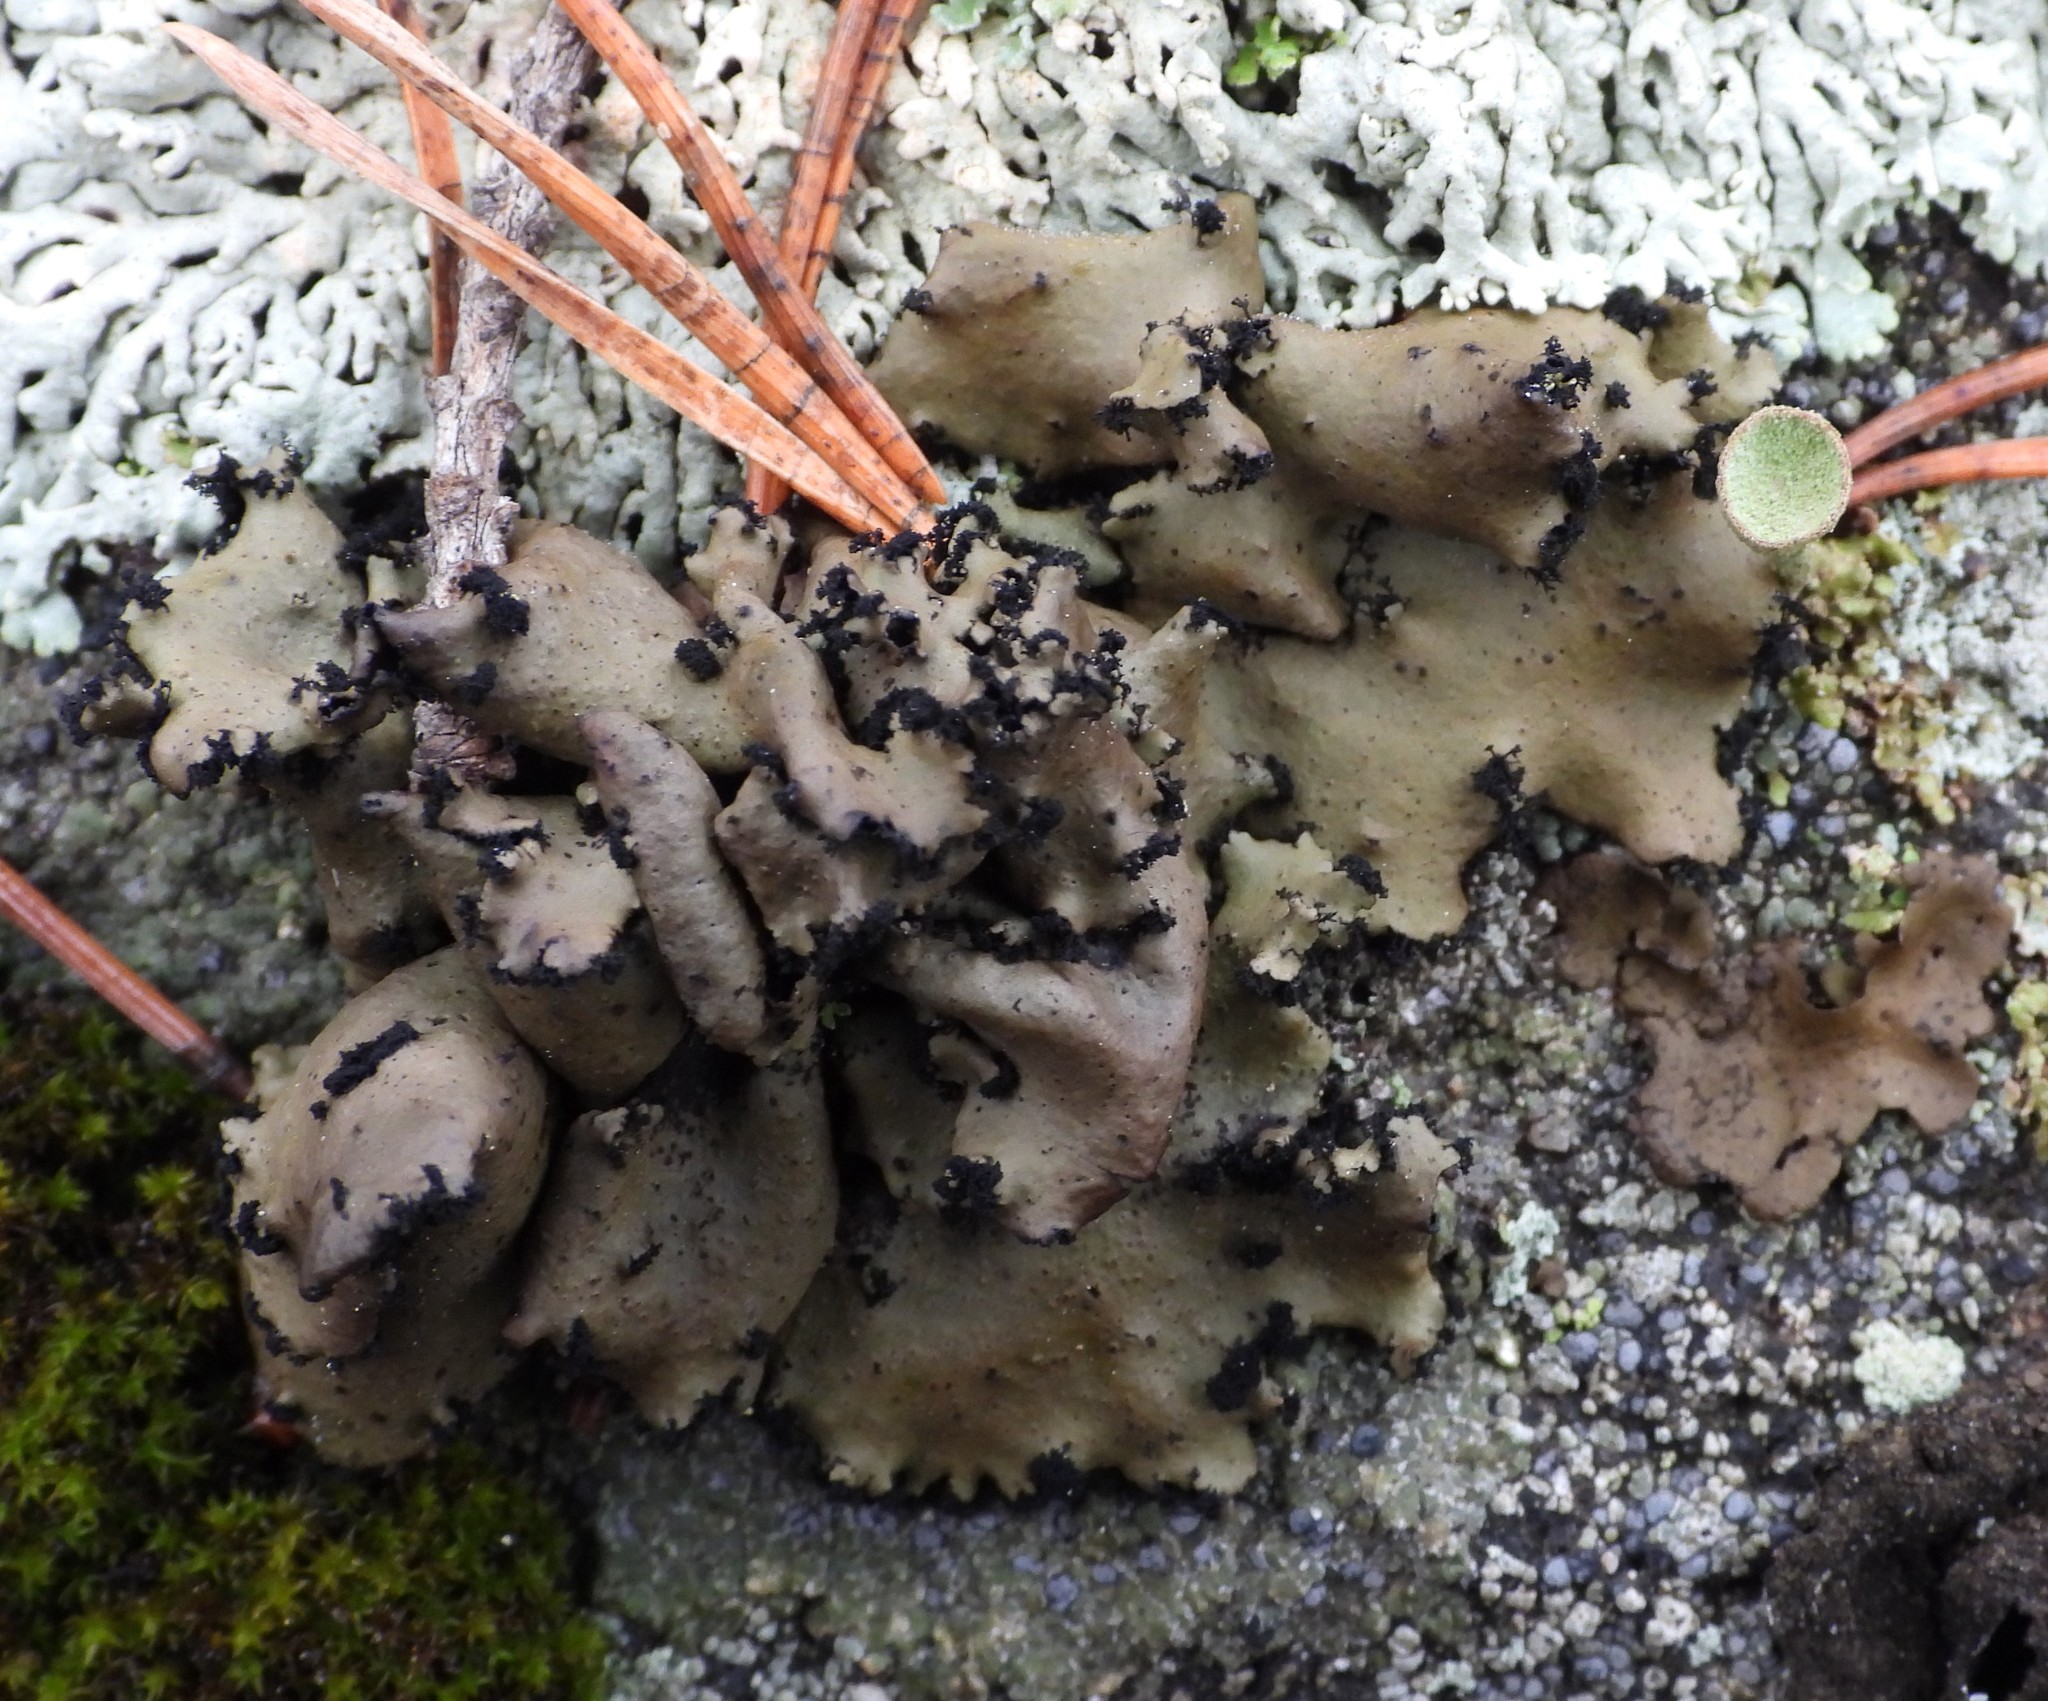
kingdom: Fungi
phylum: Ascomycota
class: Lecanoromycetes
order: Umbilicariales
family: Umbilicariaceae
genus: Umbilicaria
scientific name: Umbilicaria polyrrhiza
